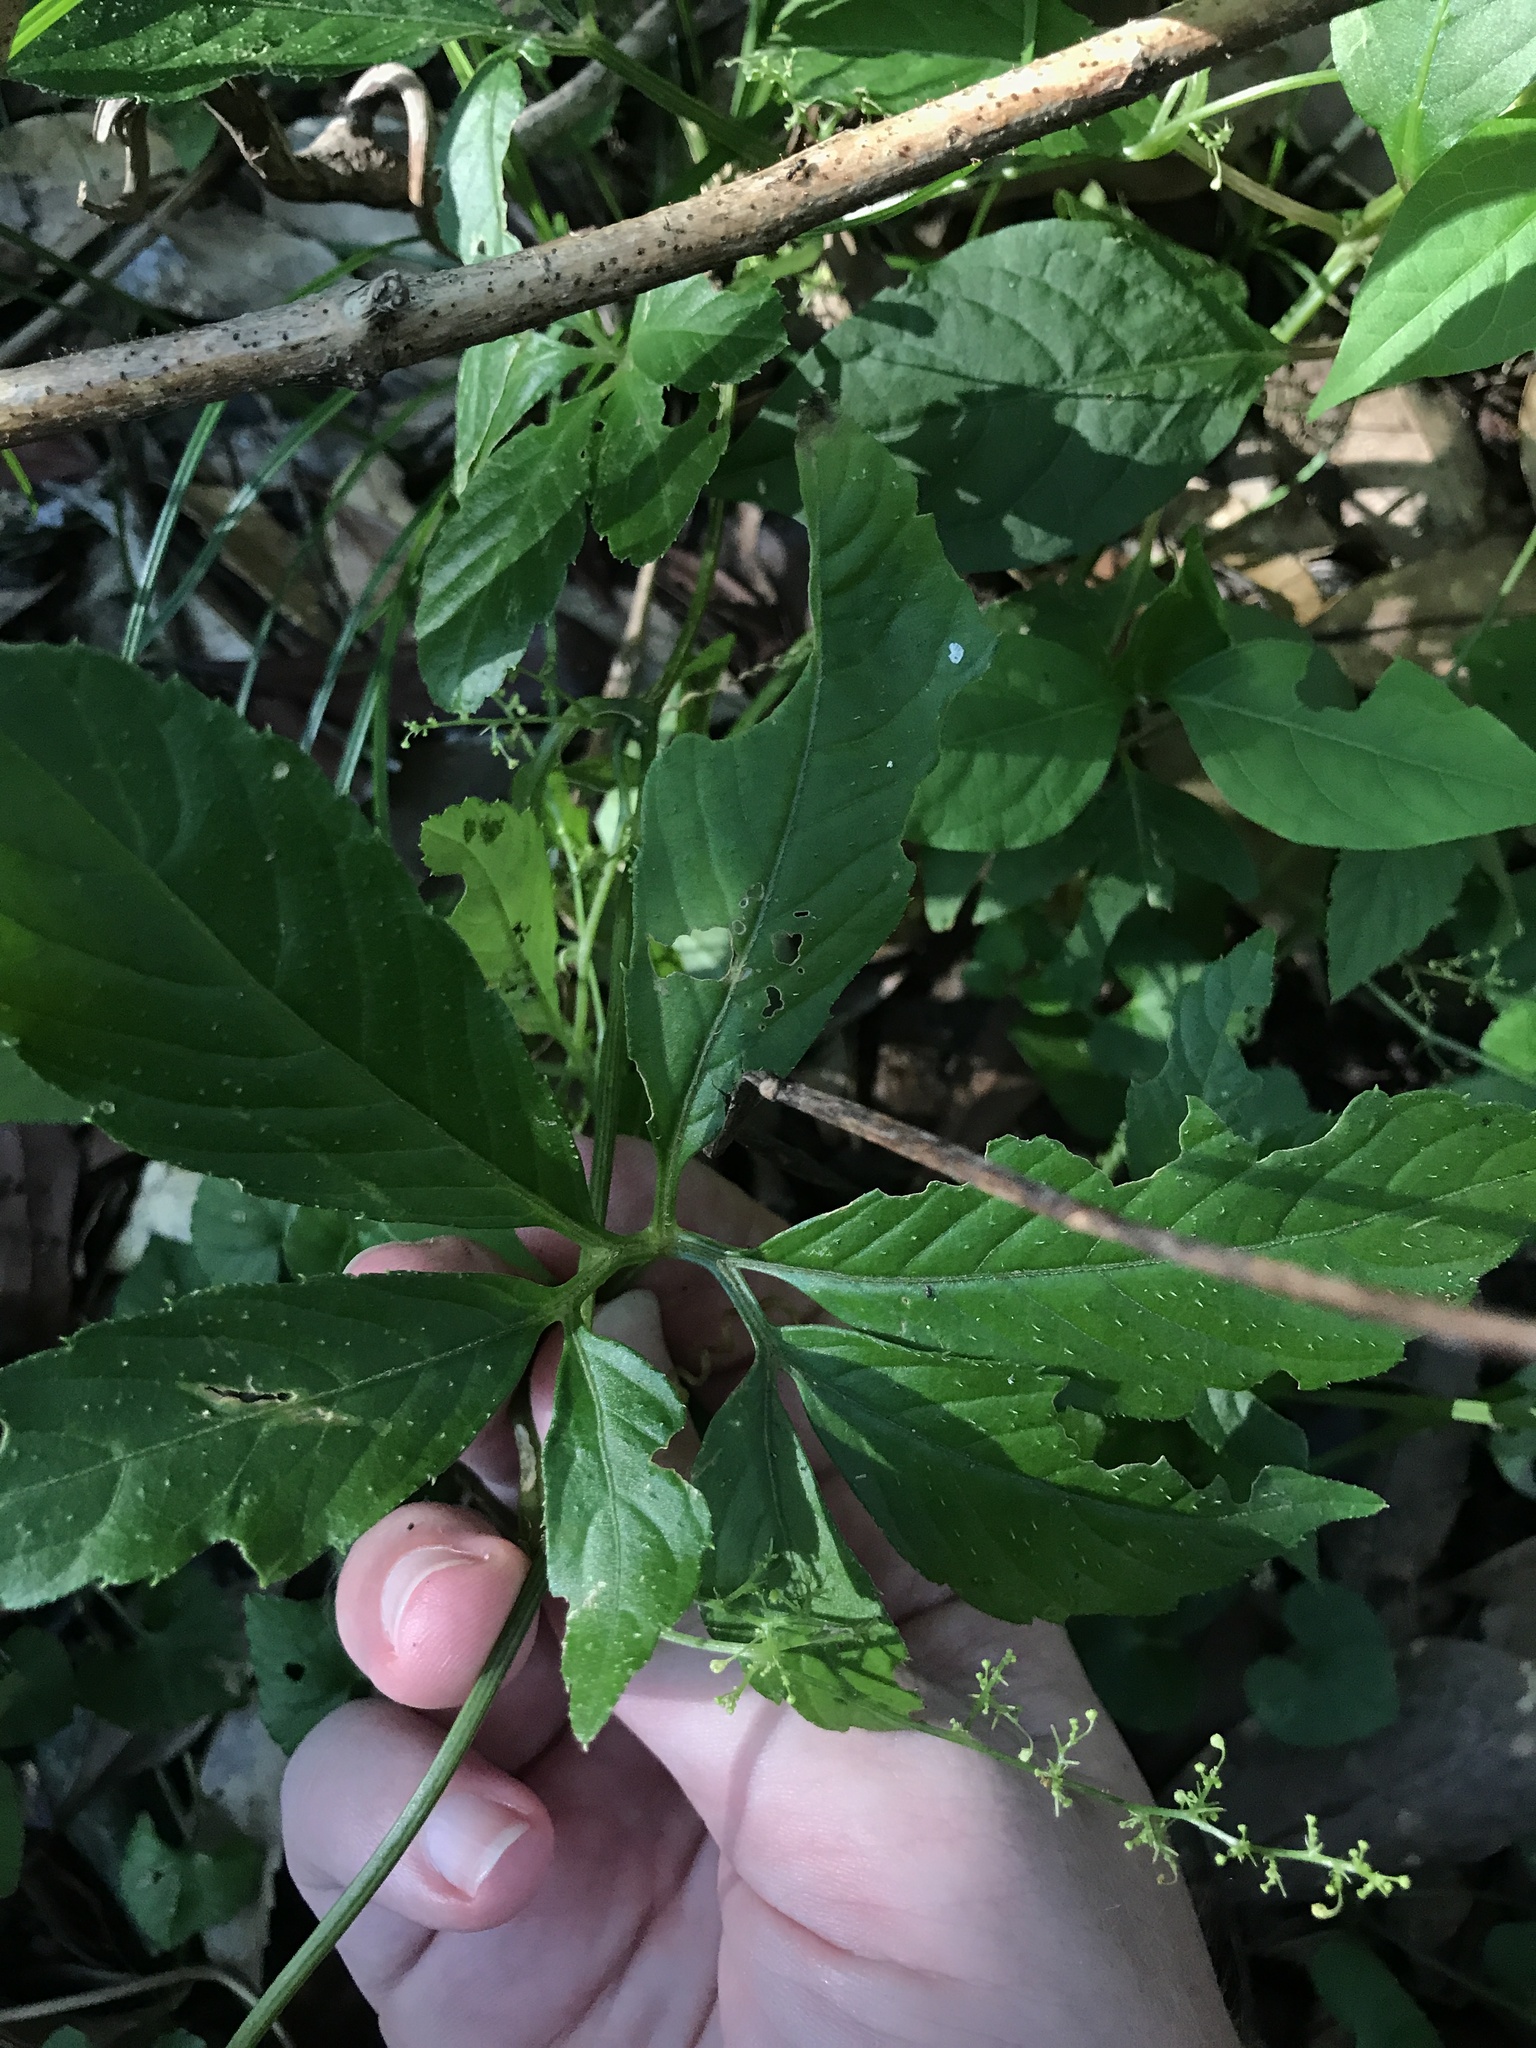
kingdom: Plantae
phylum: Tracheophyta
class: Magnoliopsida
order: Cucurbitales
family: Cucurbitaceae
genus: Gynostemma
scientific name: Gynostemma pentaphyllum
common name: Gynostemma
